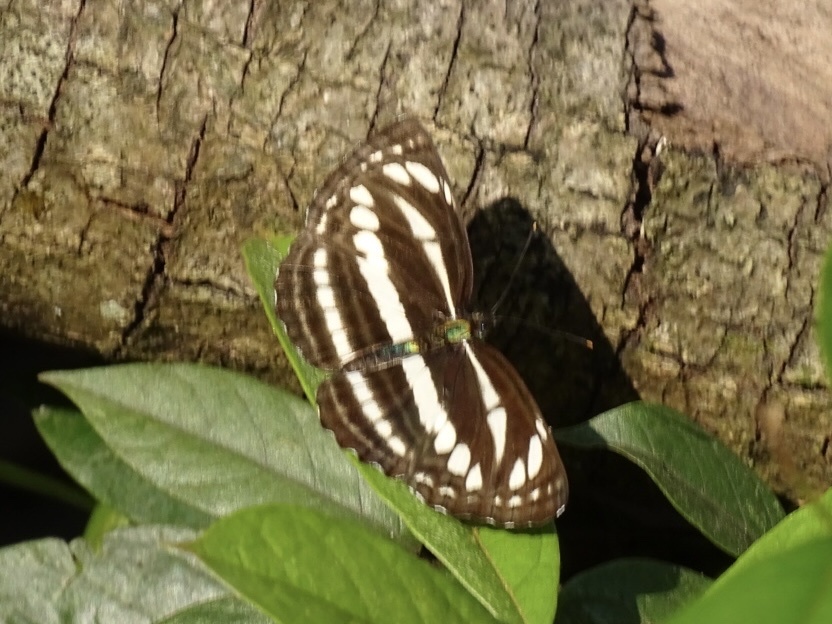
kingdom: Animalia
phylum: Arthropoda
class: Insecta
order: Lepidoptera
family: Nymphalidae
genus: Neptis
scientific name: Neptis clinia
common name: Southern sullied sailer
